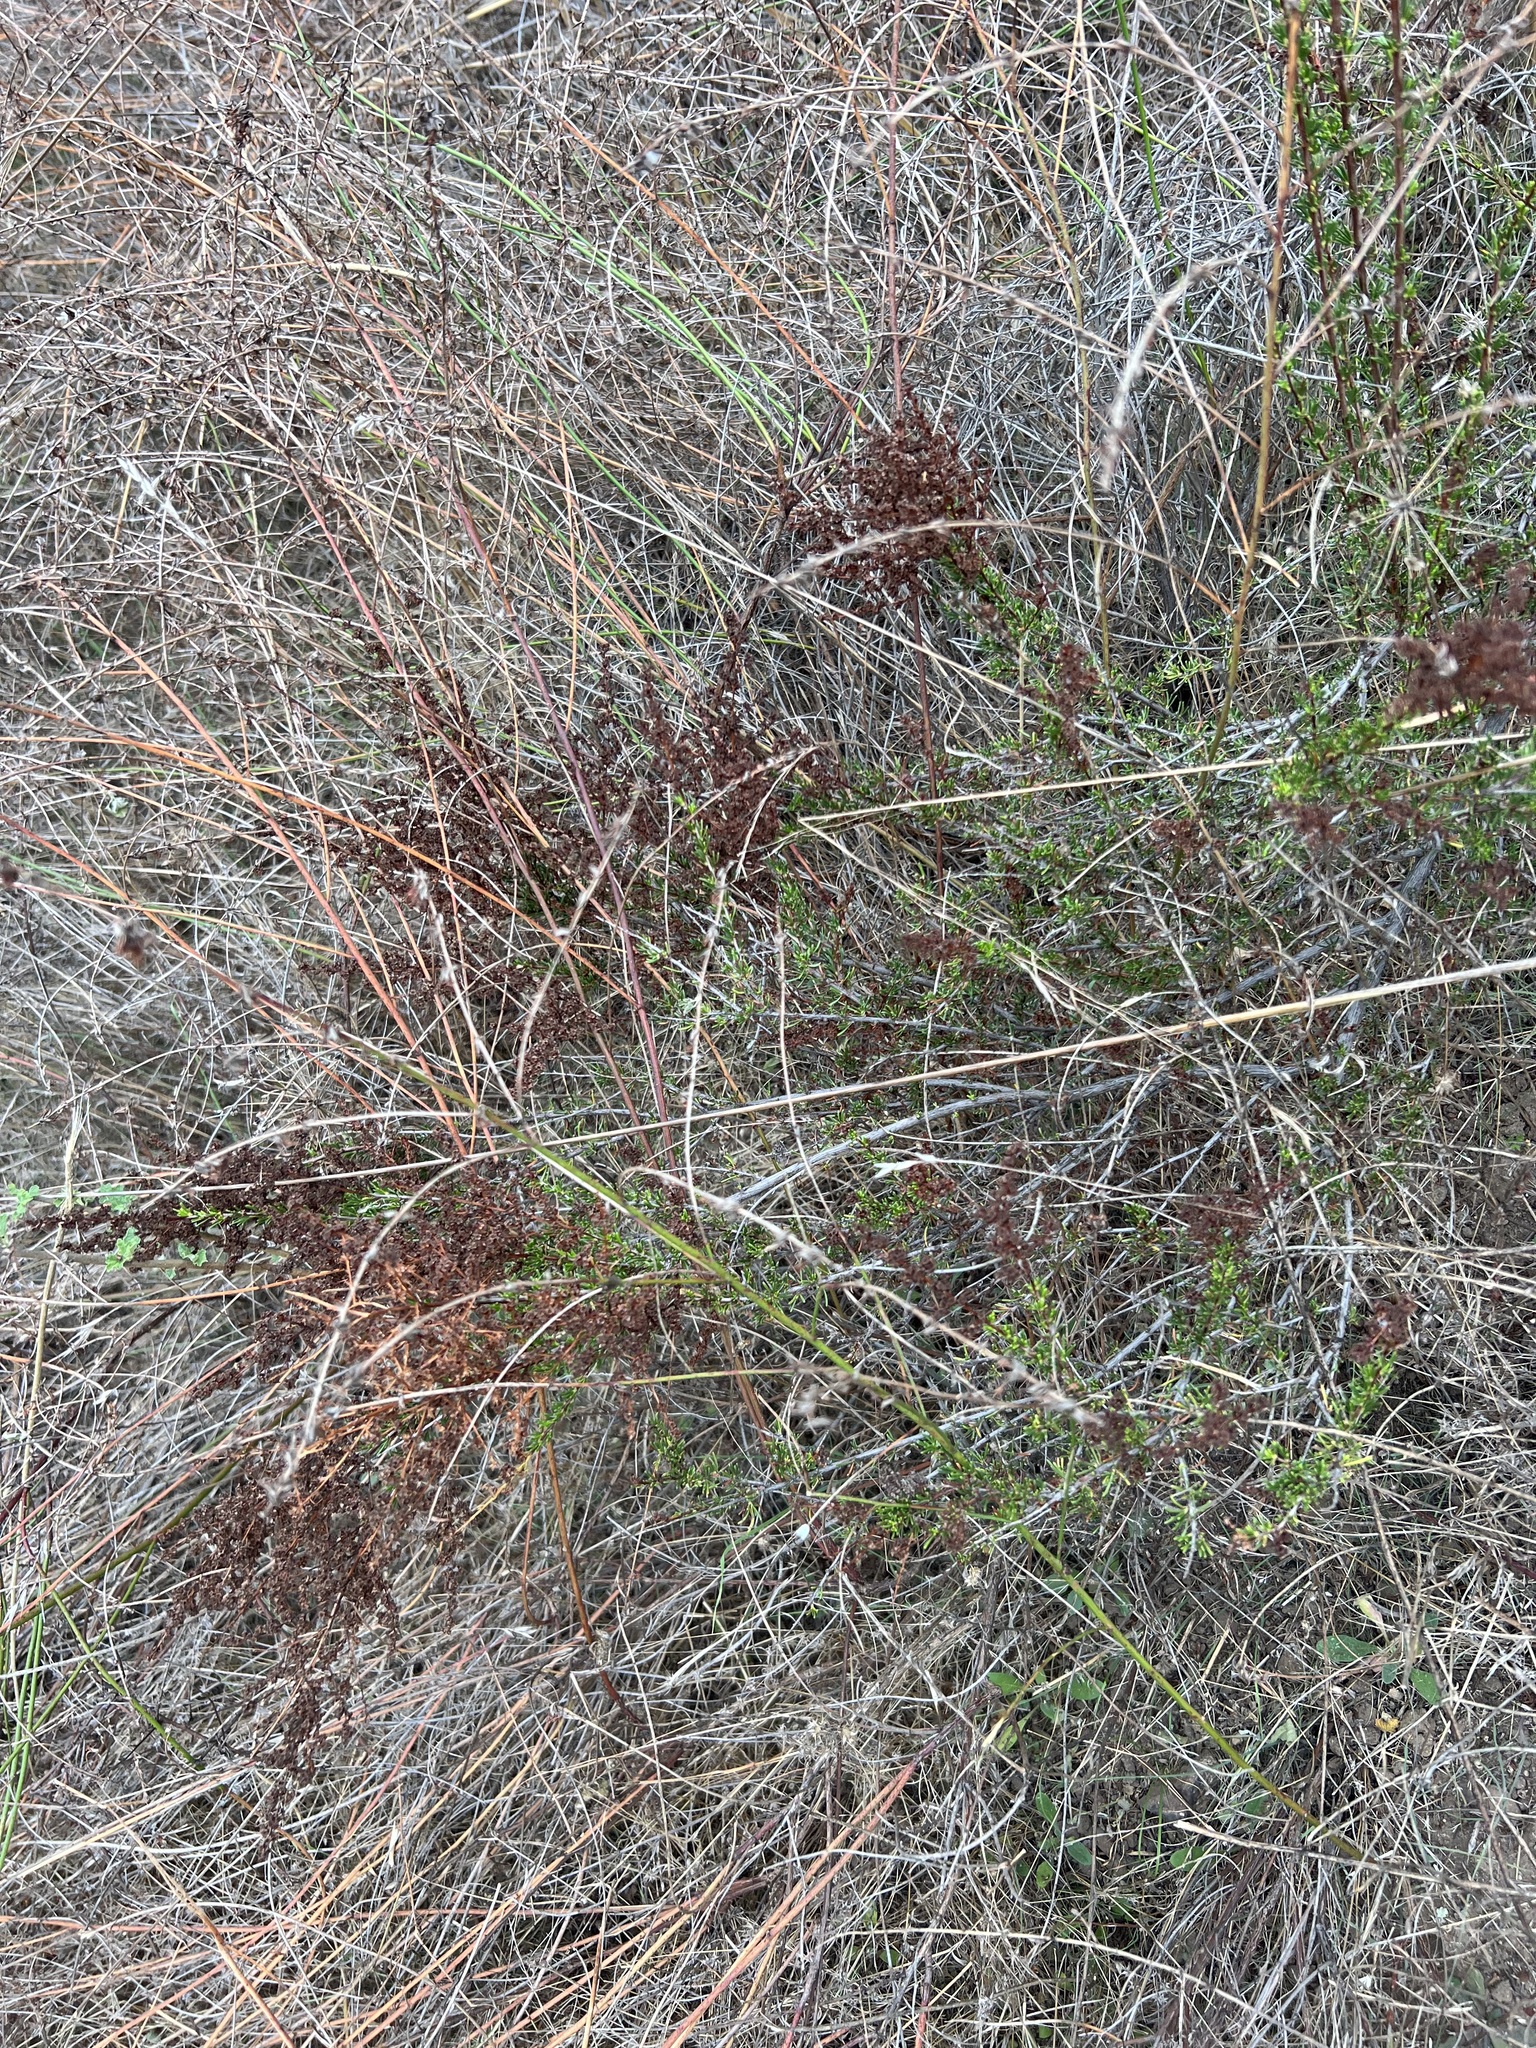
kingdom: Plantae
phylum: Tracheophyta
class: Magnoliopsida
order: Rosales
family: Rosaceae
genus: Adenostoma
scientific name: Adenostoma fasciculatum
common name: Chamise
